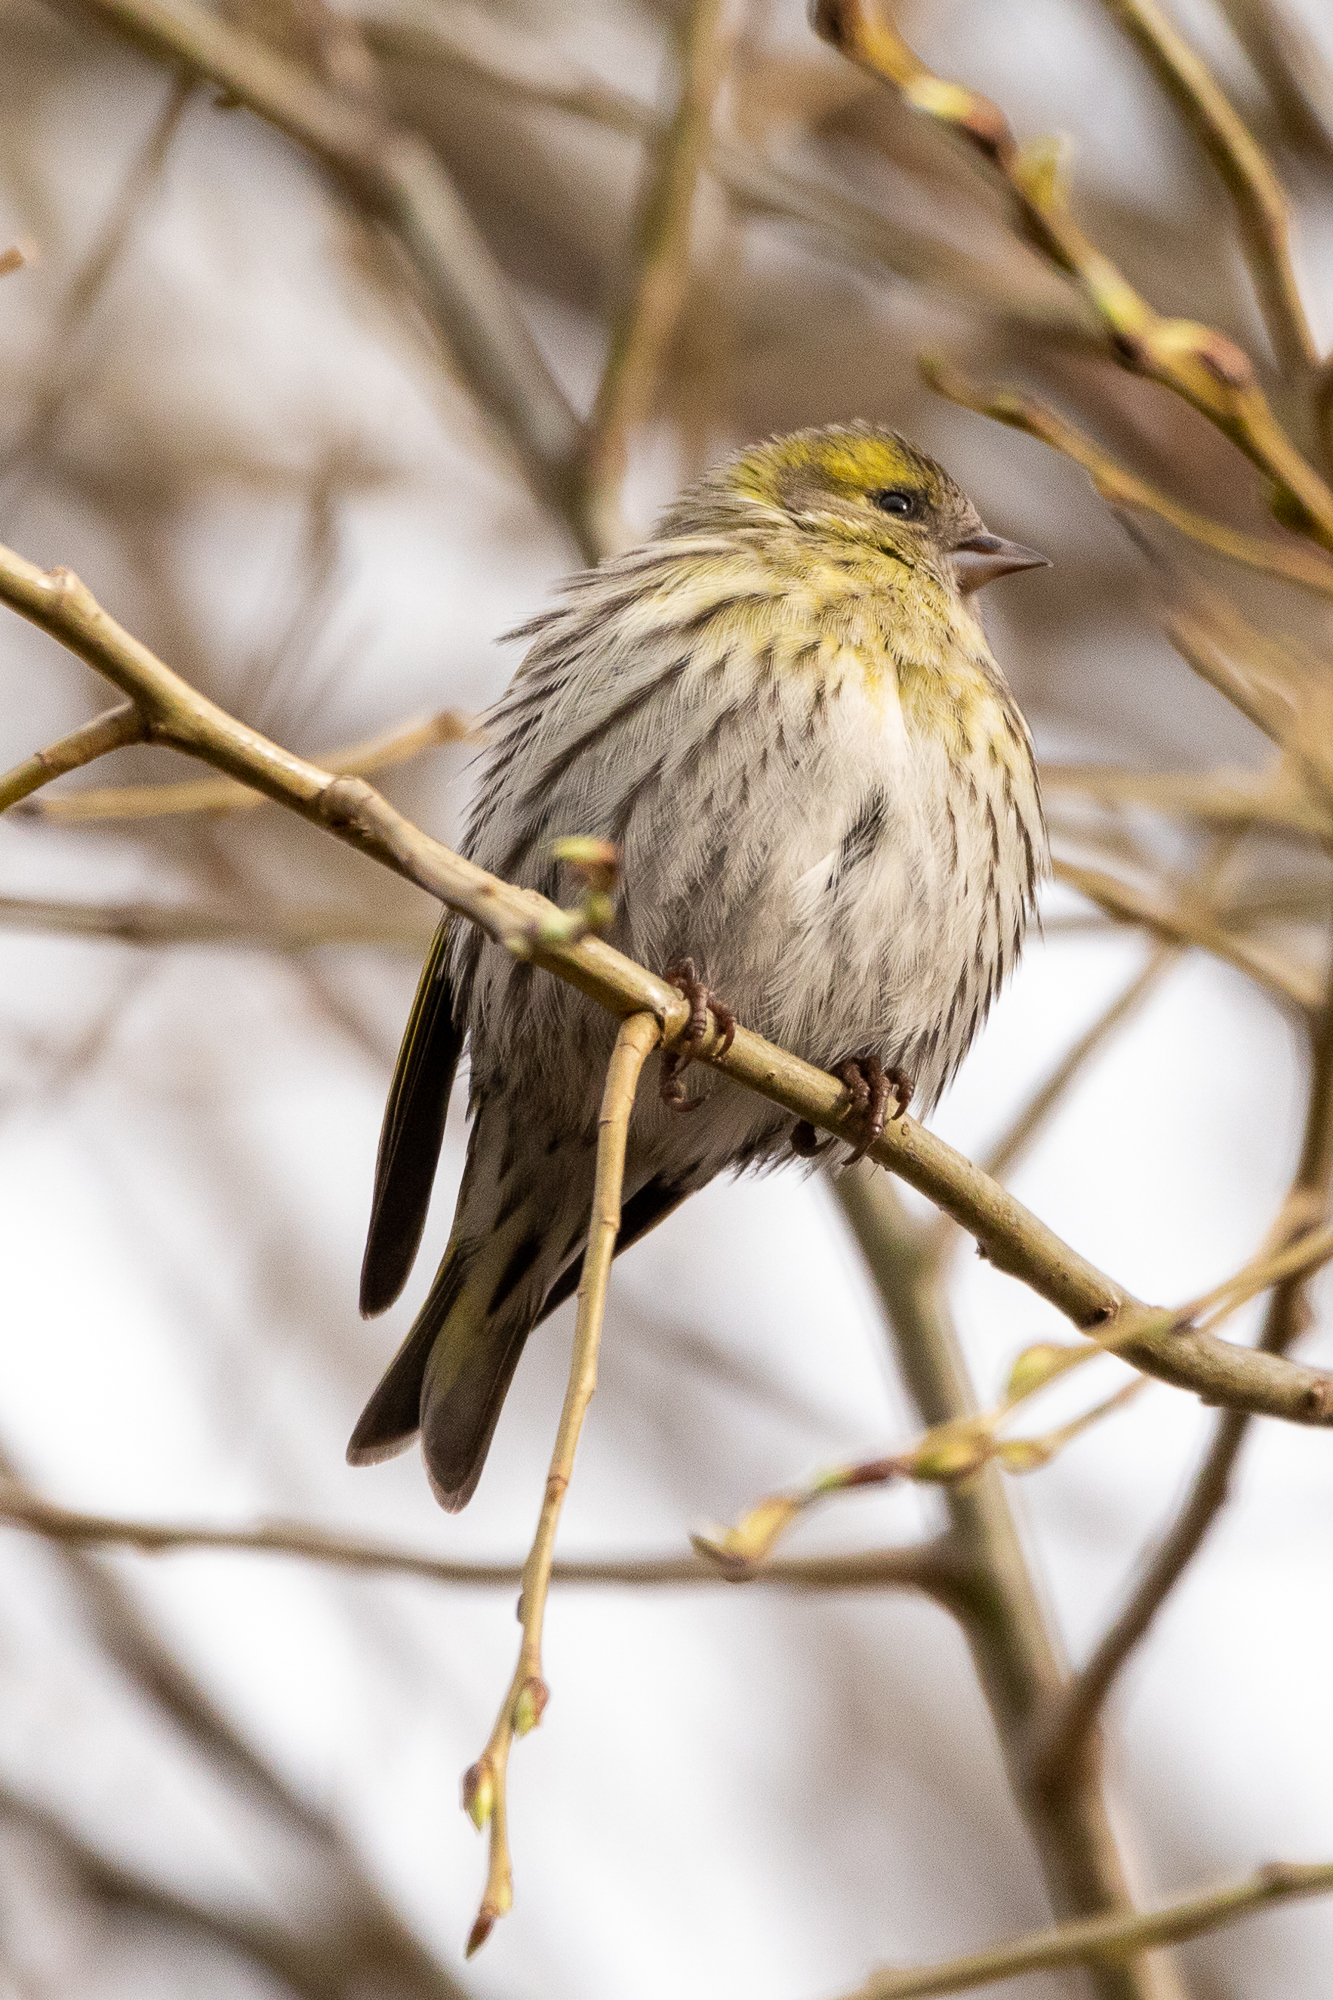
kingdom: Animalia
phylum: Chordata
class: Aves
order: Passeriformes
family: Fringillidae
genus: Spinus
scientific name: Spinus spinus
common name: Eurasian siskin
